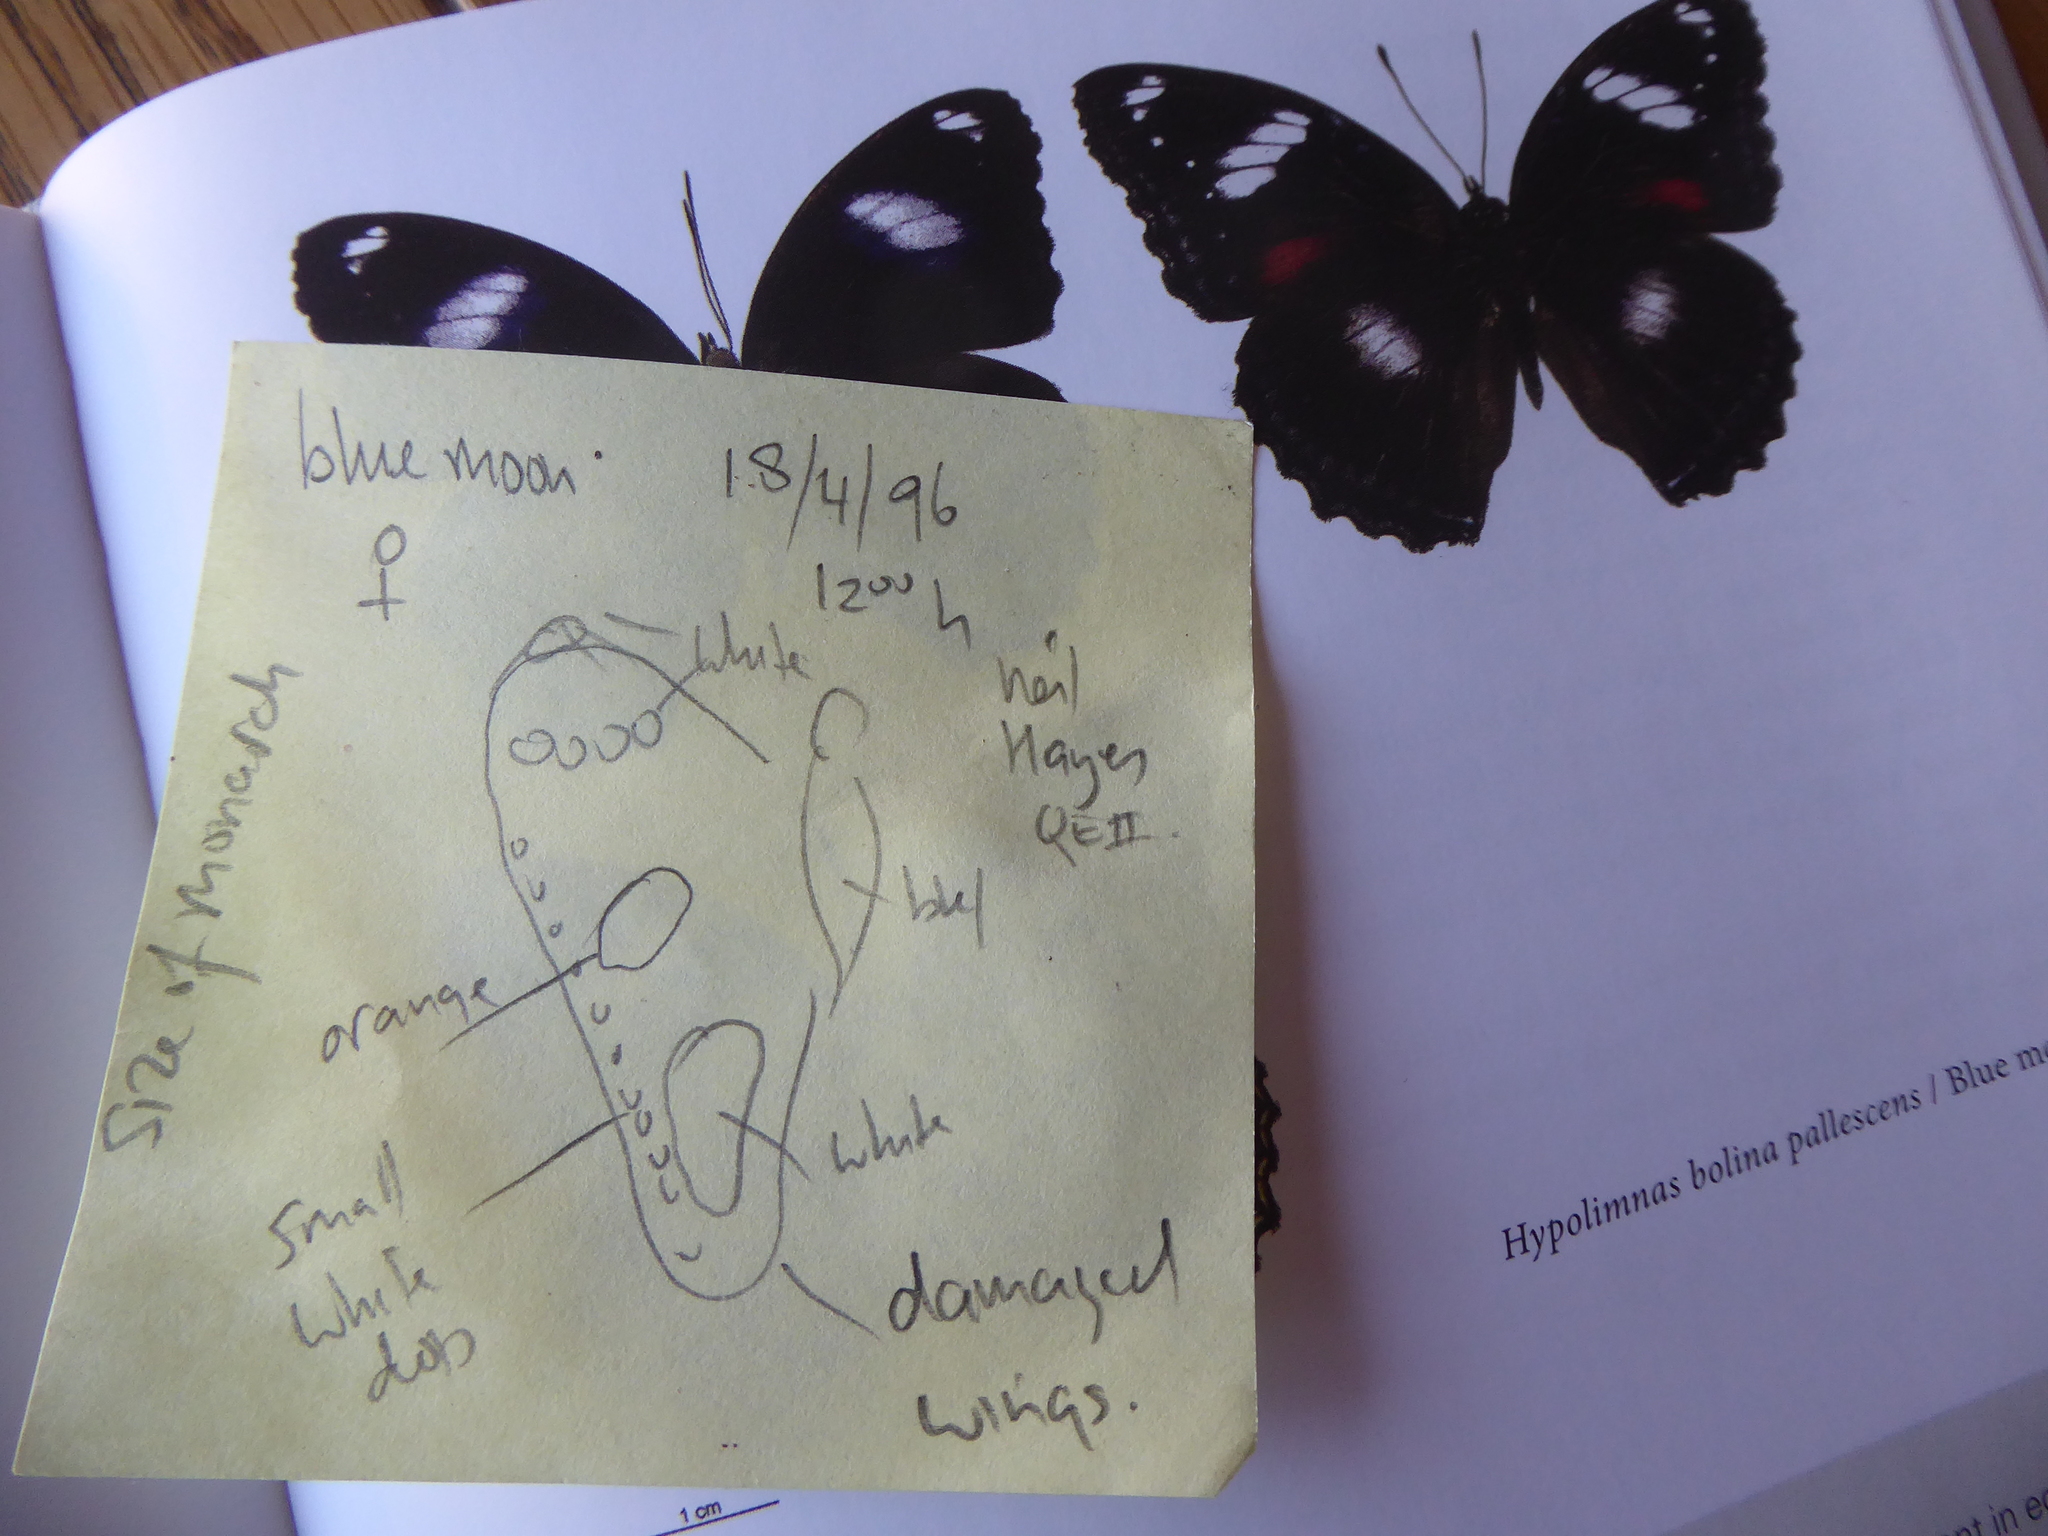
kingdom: Animalia
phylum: Arthropoda
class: Insecta
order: Lepidoptera
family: Nymphalidae
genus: Hypolimnas
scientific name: Hypolimnas bolina
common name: Great eggfly
